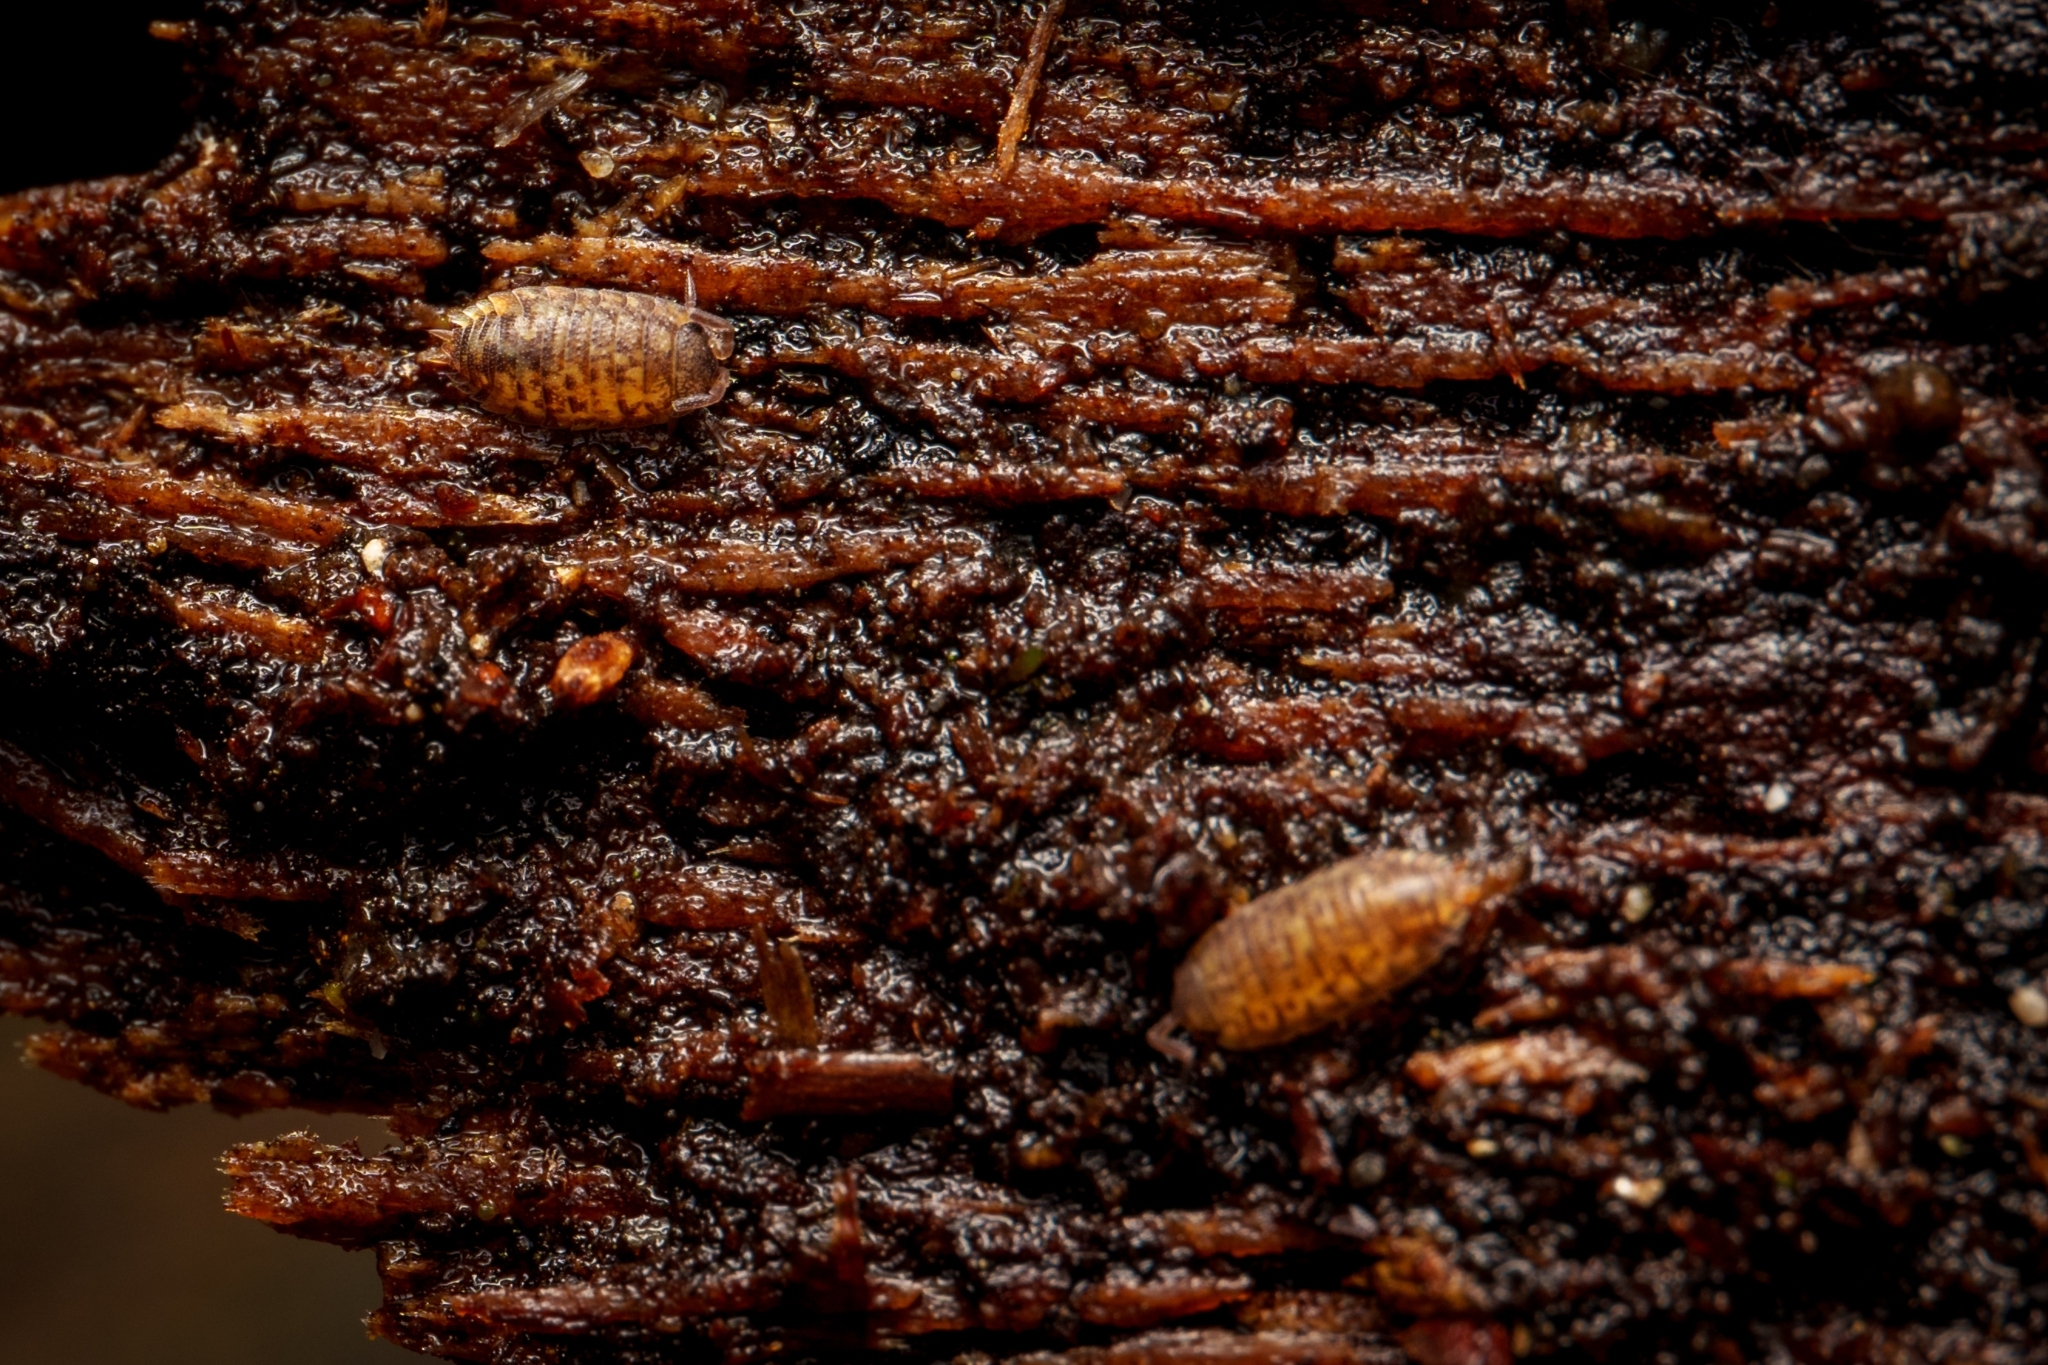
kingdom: Animalia
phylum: Arthropoda
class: Malacostraca
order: Isopoda
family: Porcellionidae
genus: Porcellio
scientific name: Porcellio scaber
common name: Common rough woodlouse
